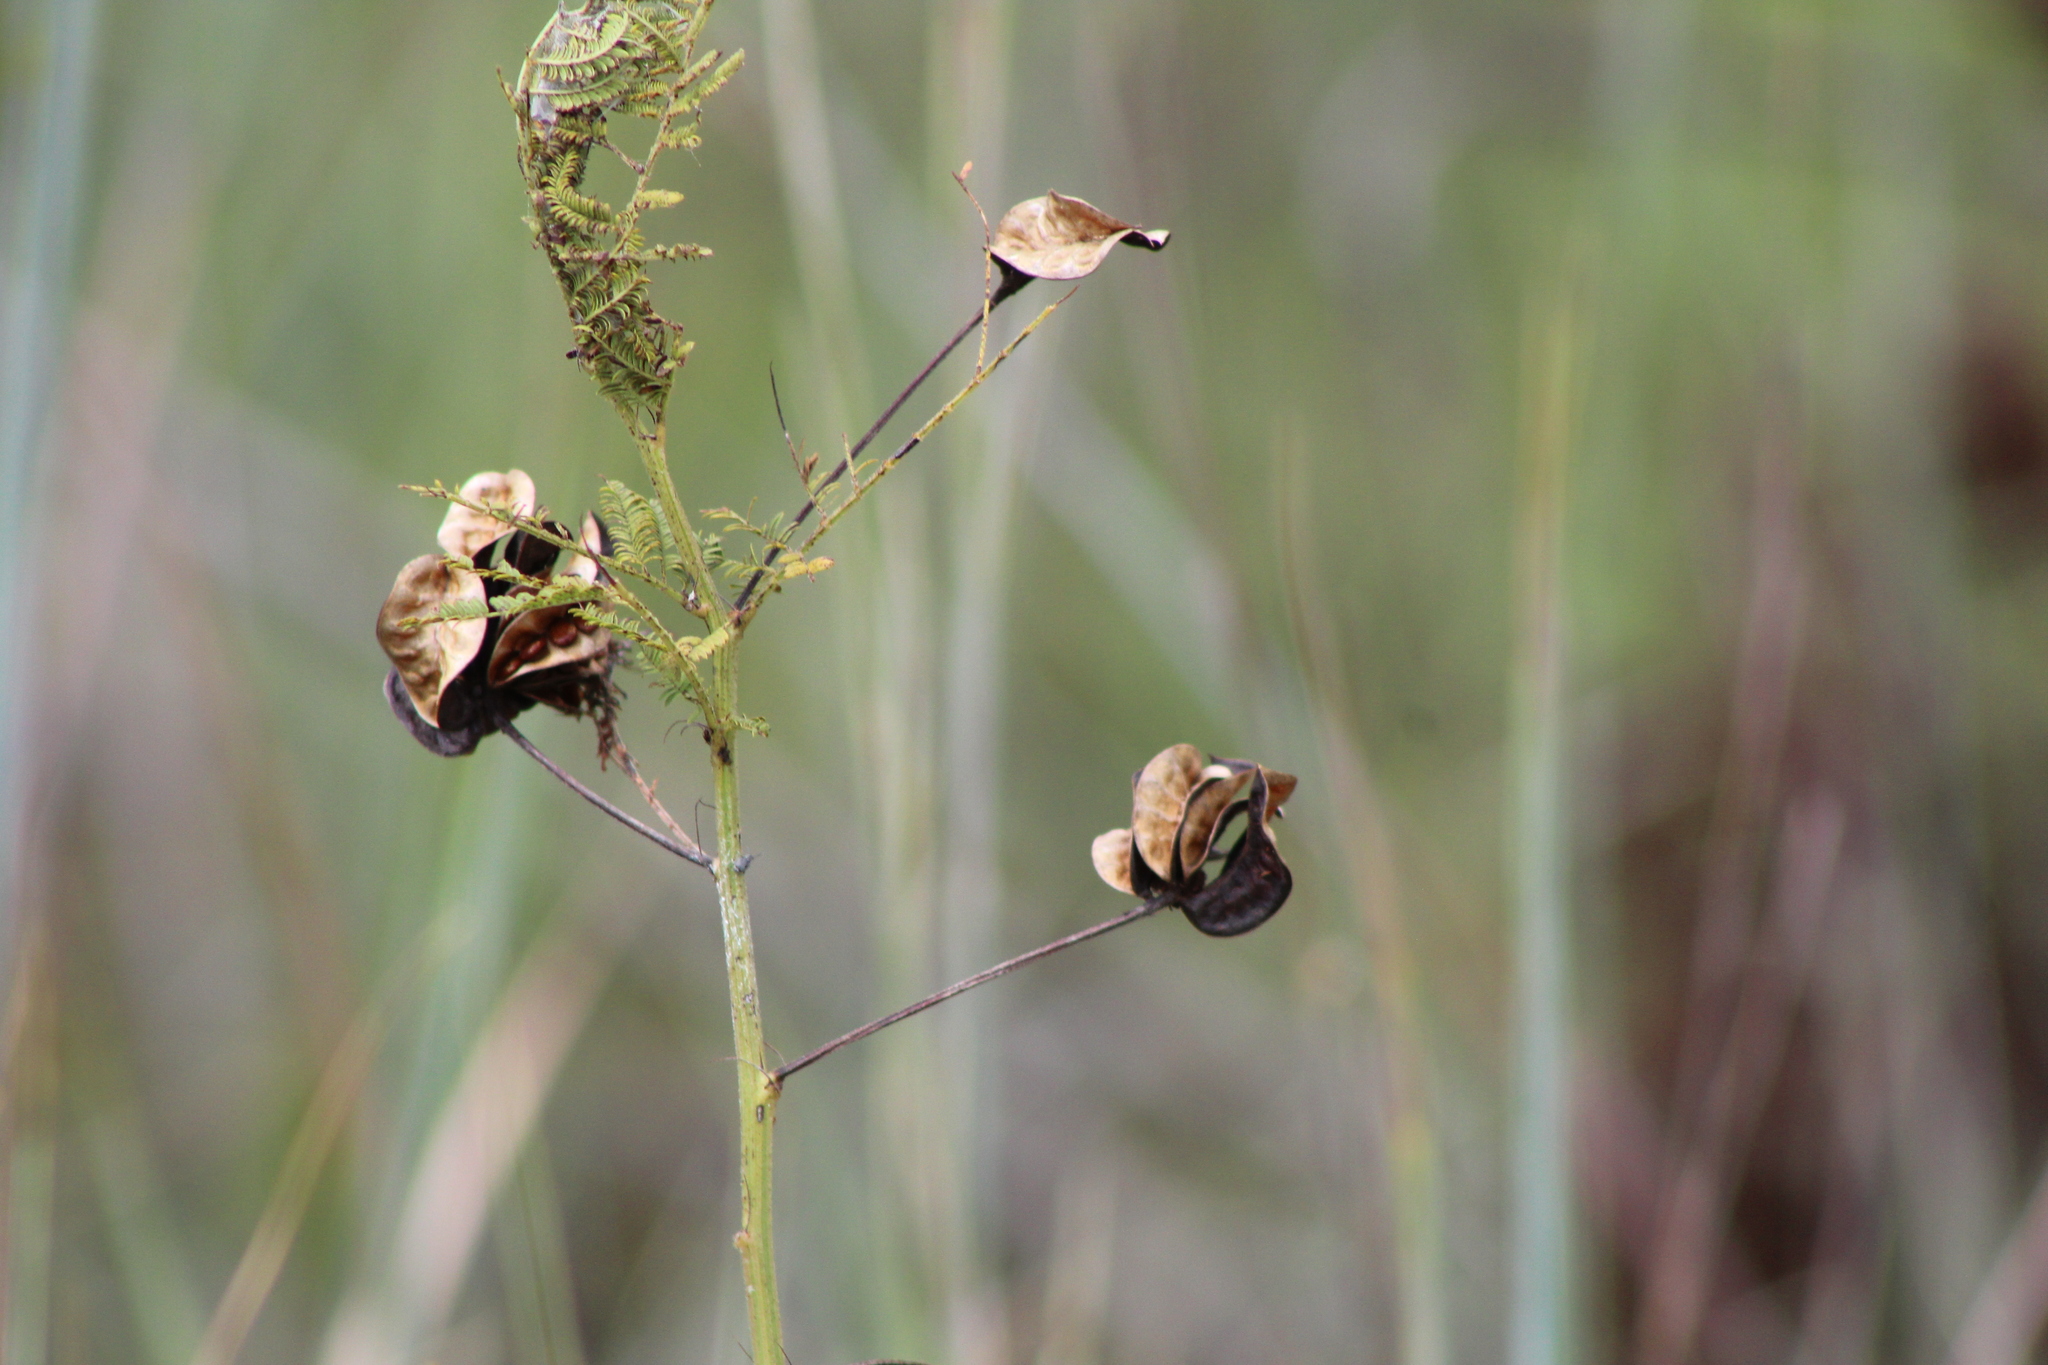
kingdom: Plantae
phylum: Tracheophyta
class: Magnoliopsida
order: Fabales
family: Fabaceae
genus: Desmanthus
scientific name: Desmanthus illinoensis
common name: Illinois bundle-flower
